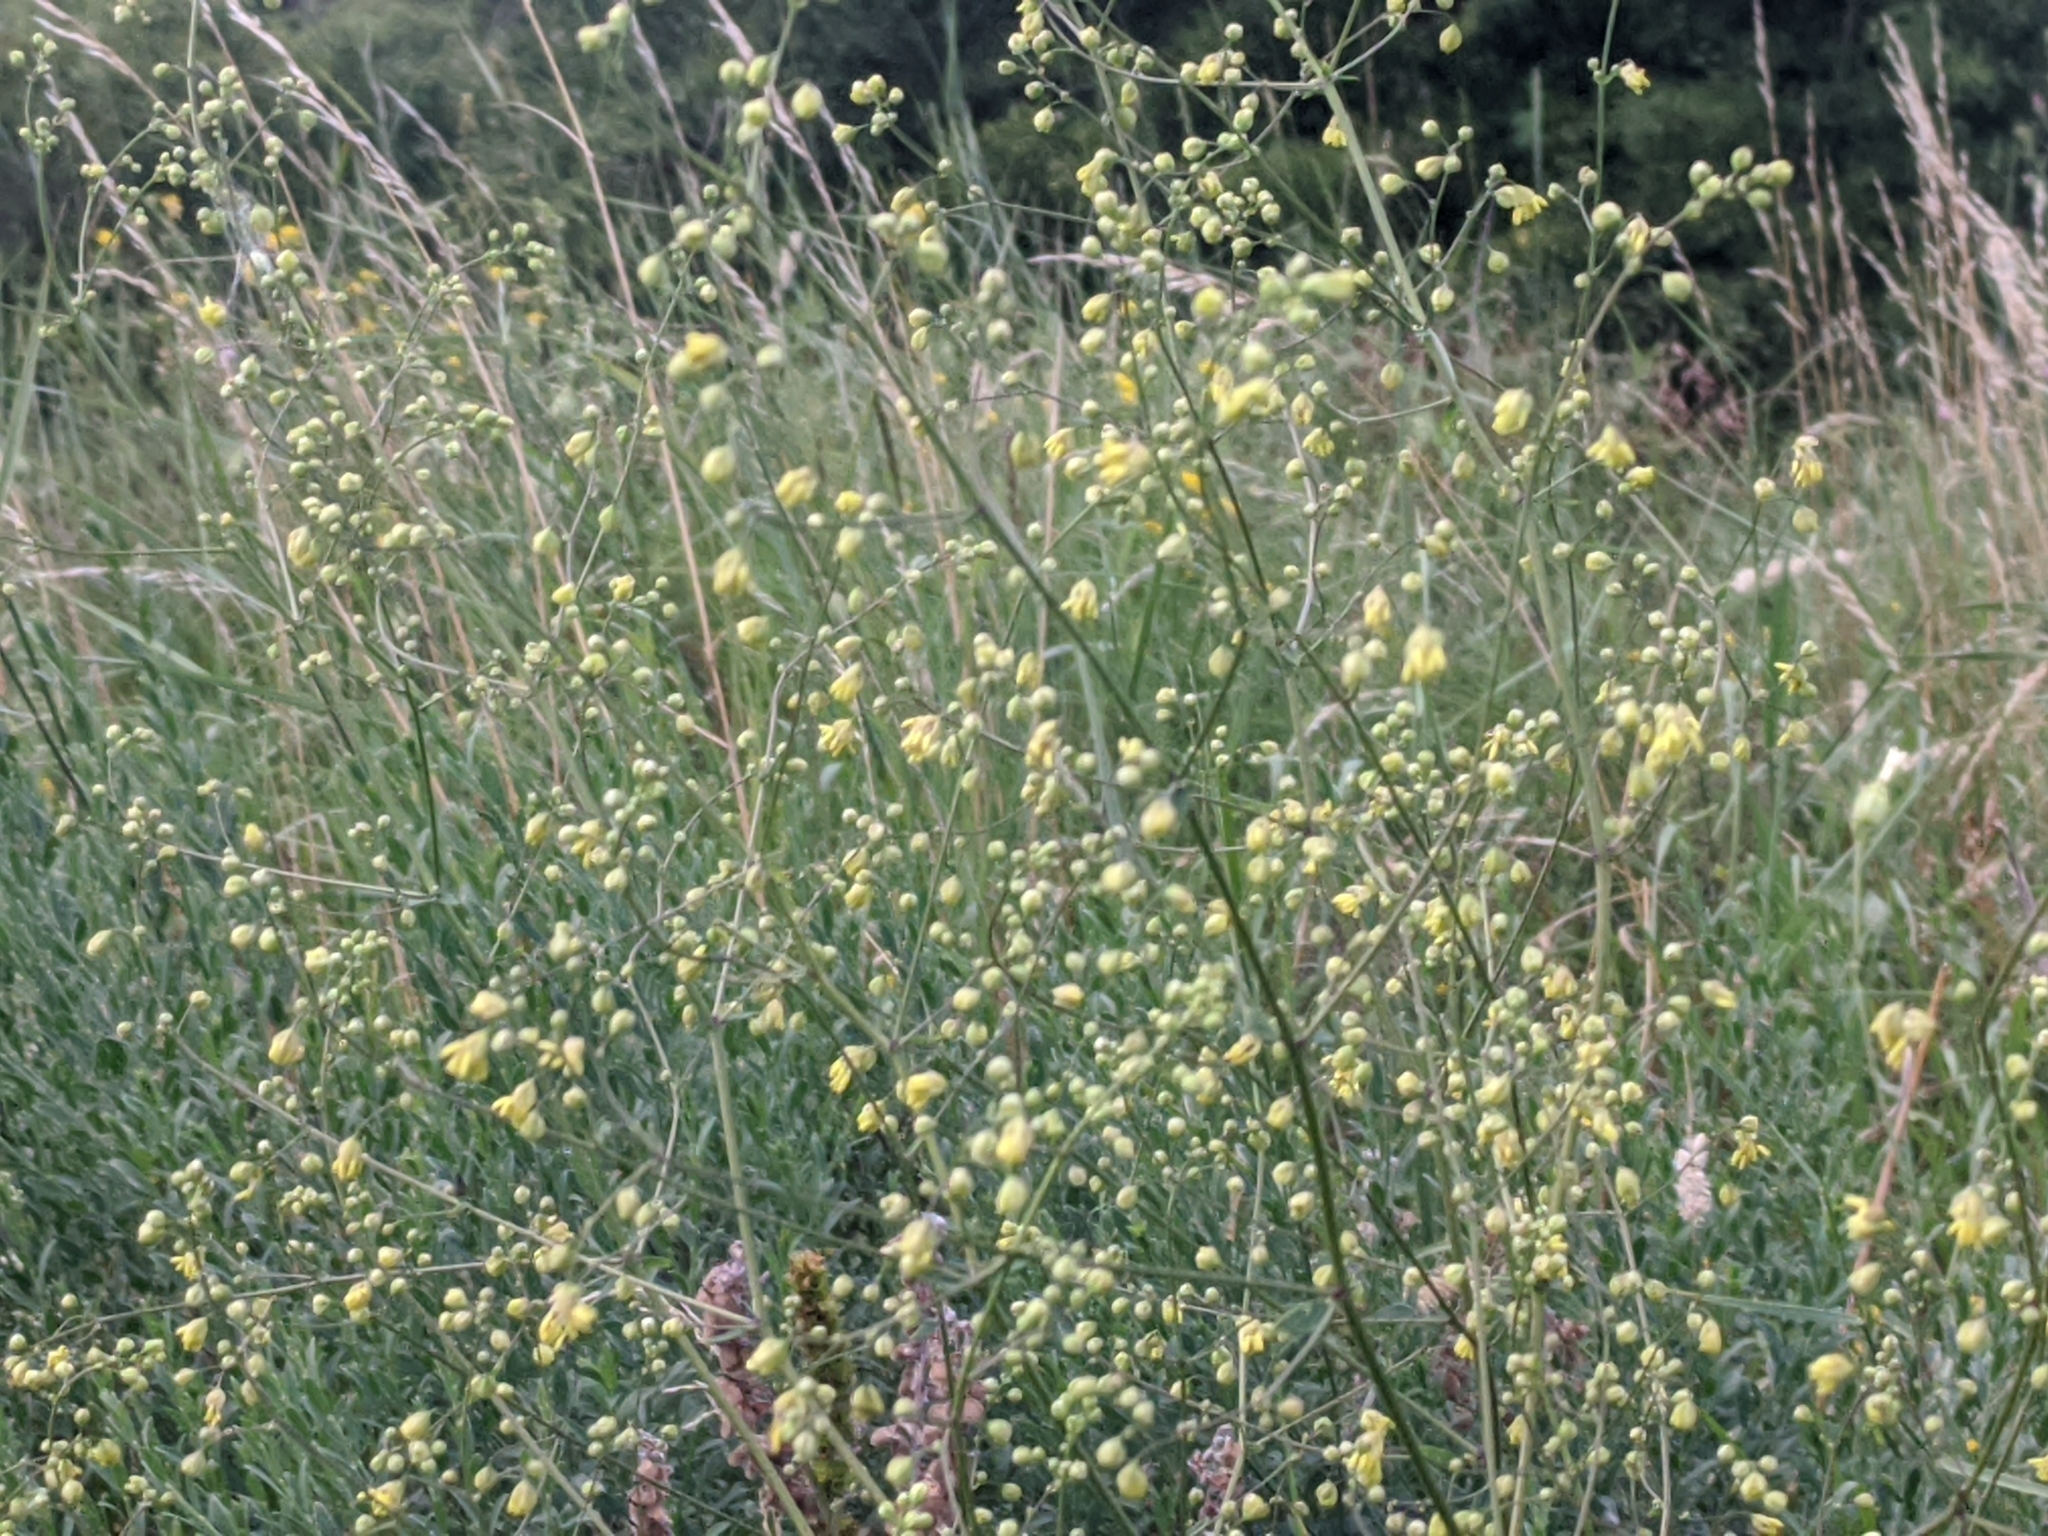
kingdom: Plantae
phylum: Tracheophyta
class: Magnoliopsida
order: Ranunculales
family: Ranunculaceae
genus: Thalictrum
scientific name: Thalictrum minus
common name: Lesser meadow-rue
